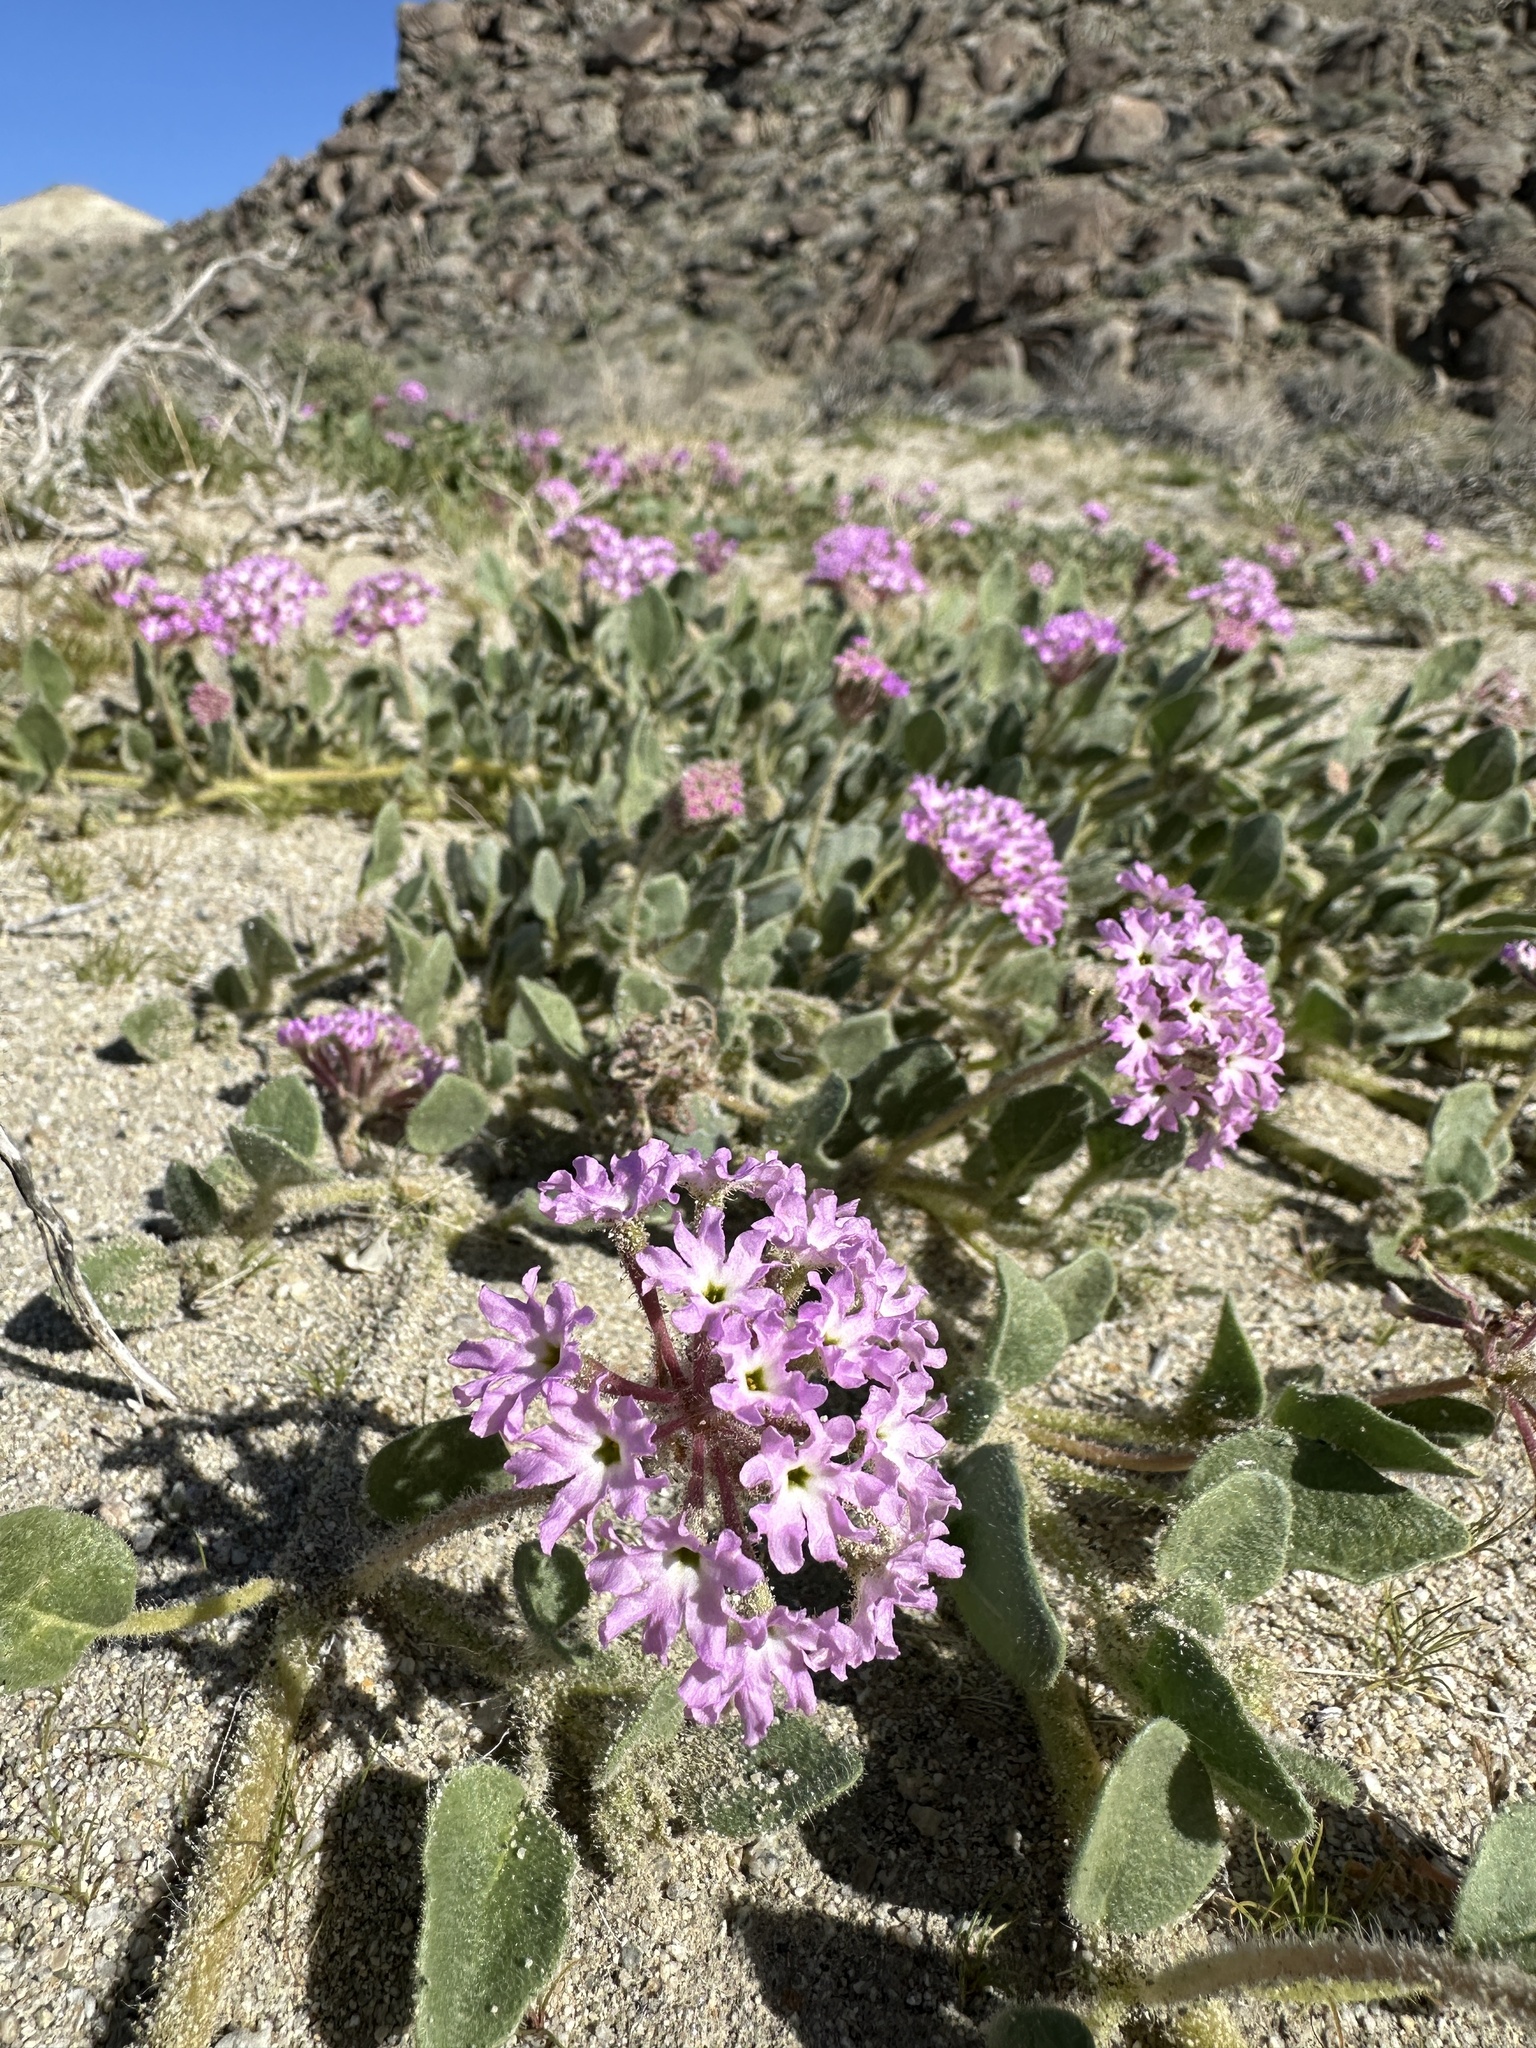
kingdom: Plantae
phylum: Tracheophyta
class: Magnoliopsida
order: Caryophyllales
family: Nyctaginaceae
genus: Abronia
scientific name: Abronia villosa
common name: Desert sand-verbena
